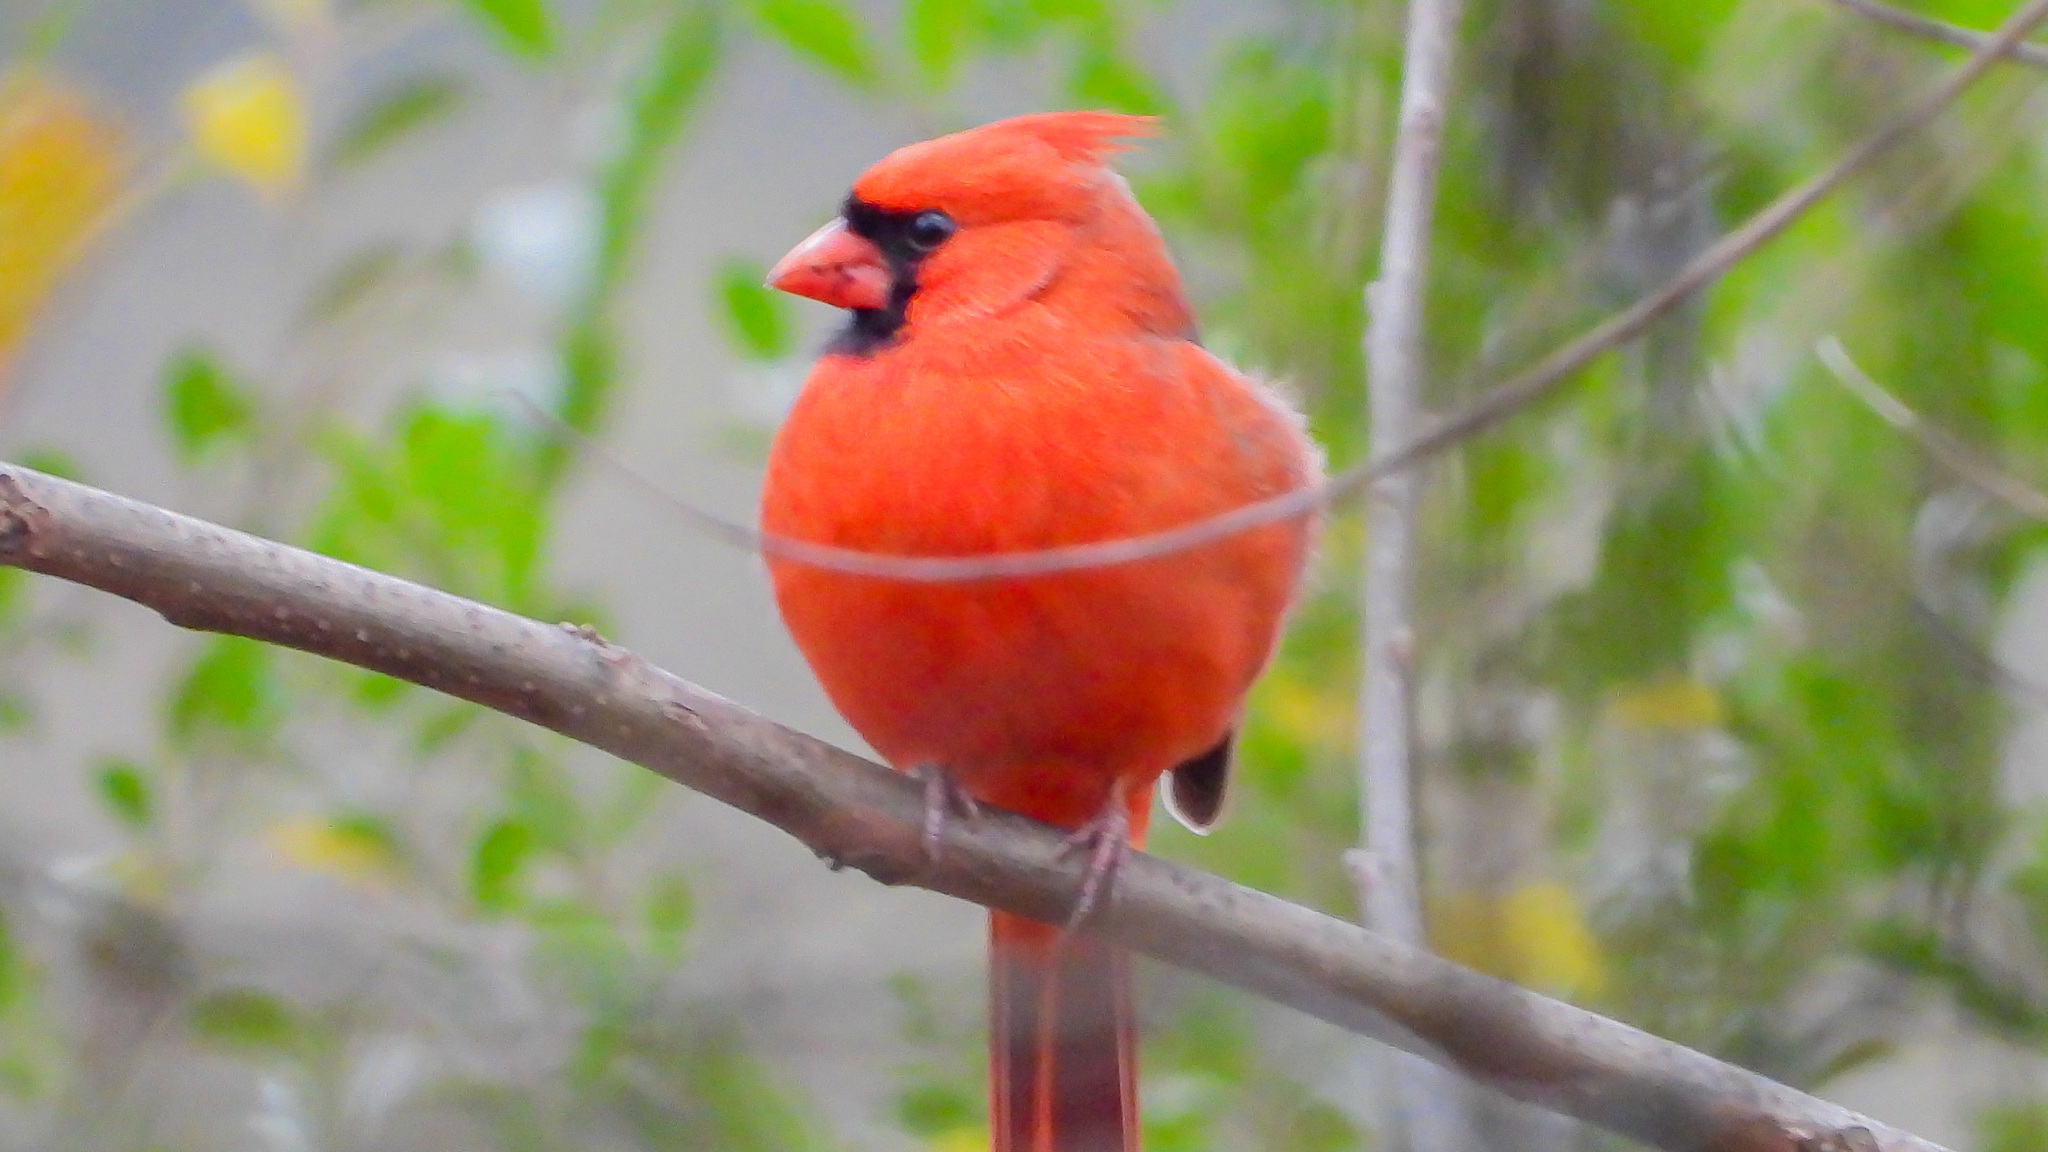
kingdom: Animalia
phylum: Chordata
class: Aves
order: Passeriformes
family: Cardinalidae
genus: Cardinalis
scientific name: Cardinalis cardinalis
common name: Northern cardinal
